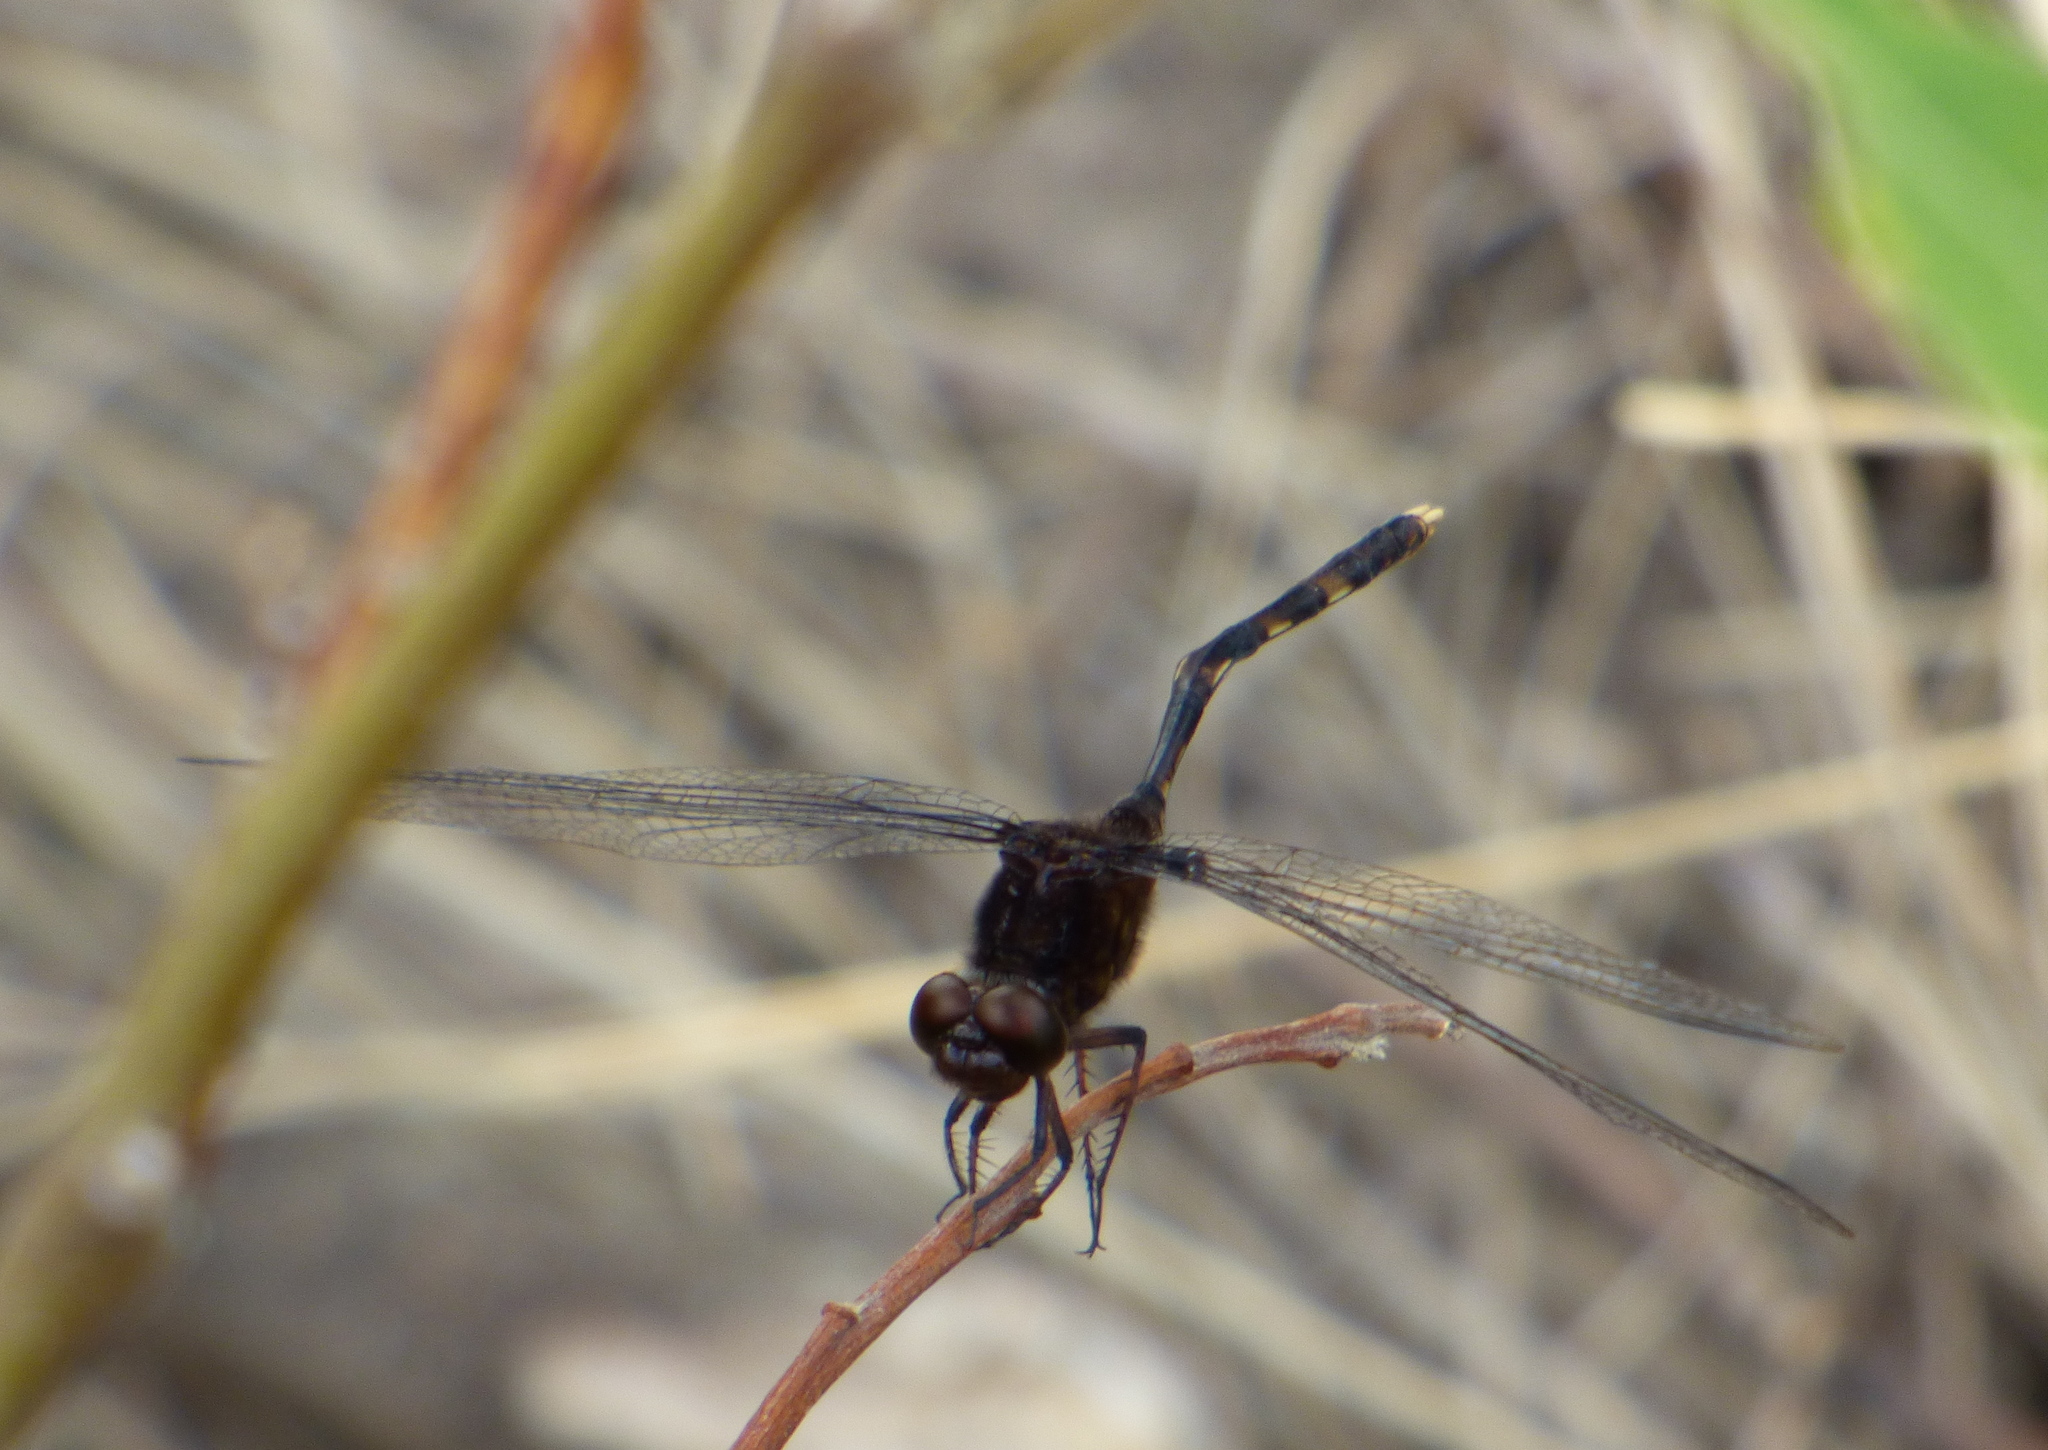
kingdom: Animalia
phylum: Arthropoda
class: Insecta
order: Odonata
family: Libellulidae
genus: Erythemis
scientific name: Erythemis plebeja
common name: Pin-tailed pondhawk
